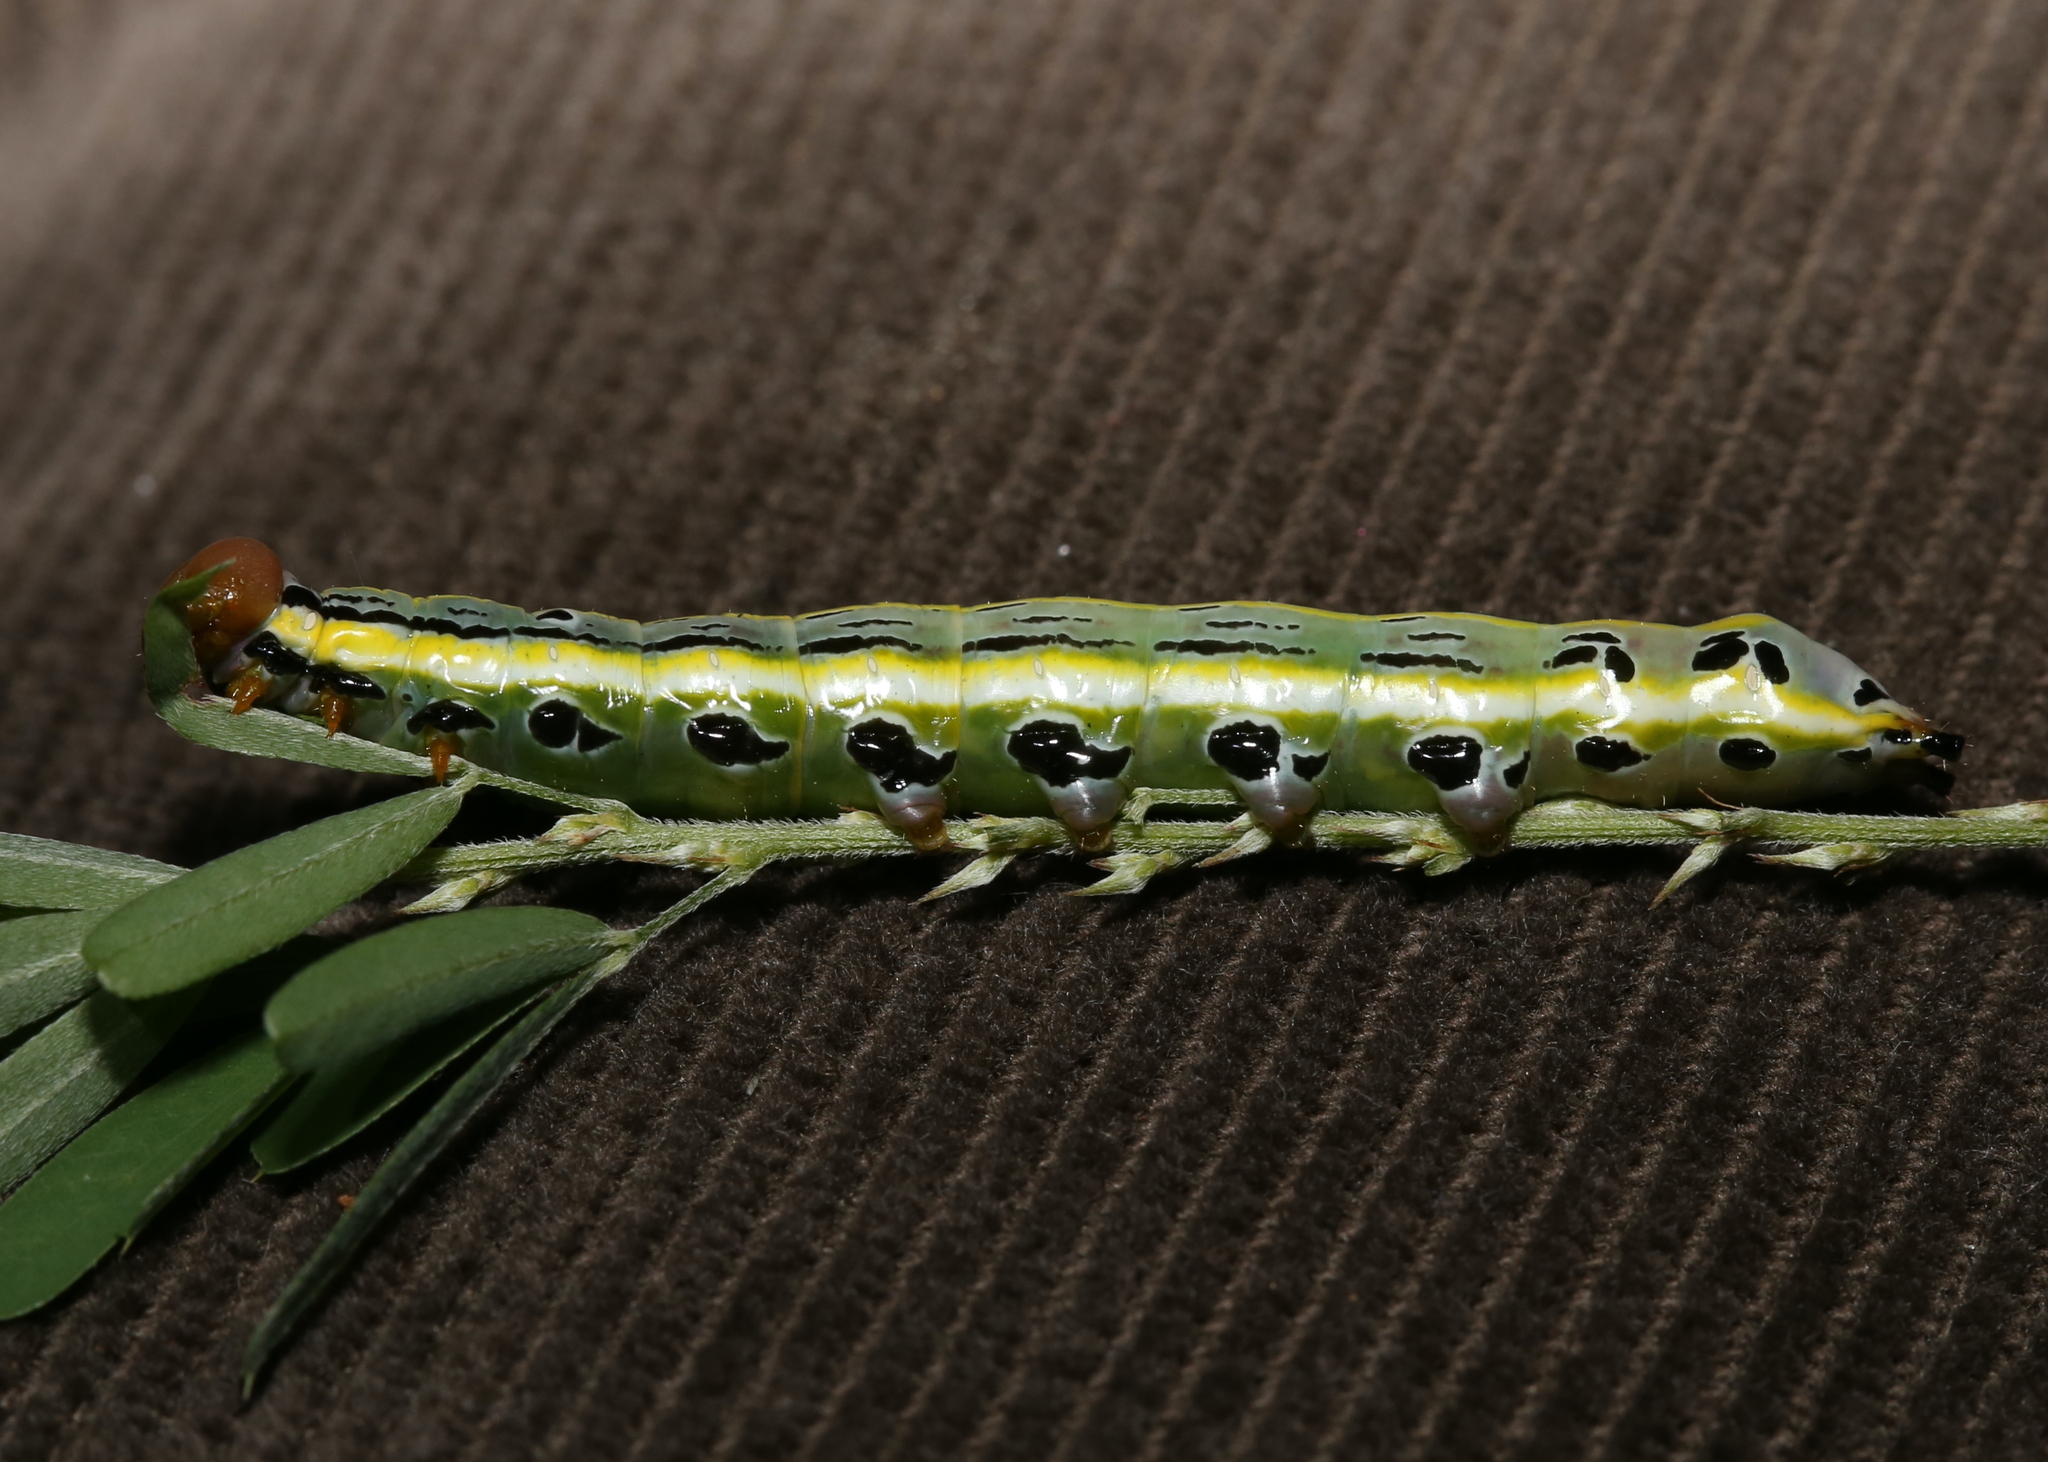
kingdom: Animalia
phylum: Arthropoda
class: Insecta
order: Lepidoptera
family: Notodontidae
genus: Dasylophia
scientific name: Dasylophia anguina
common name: Black-spotted prominent
